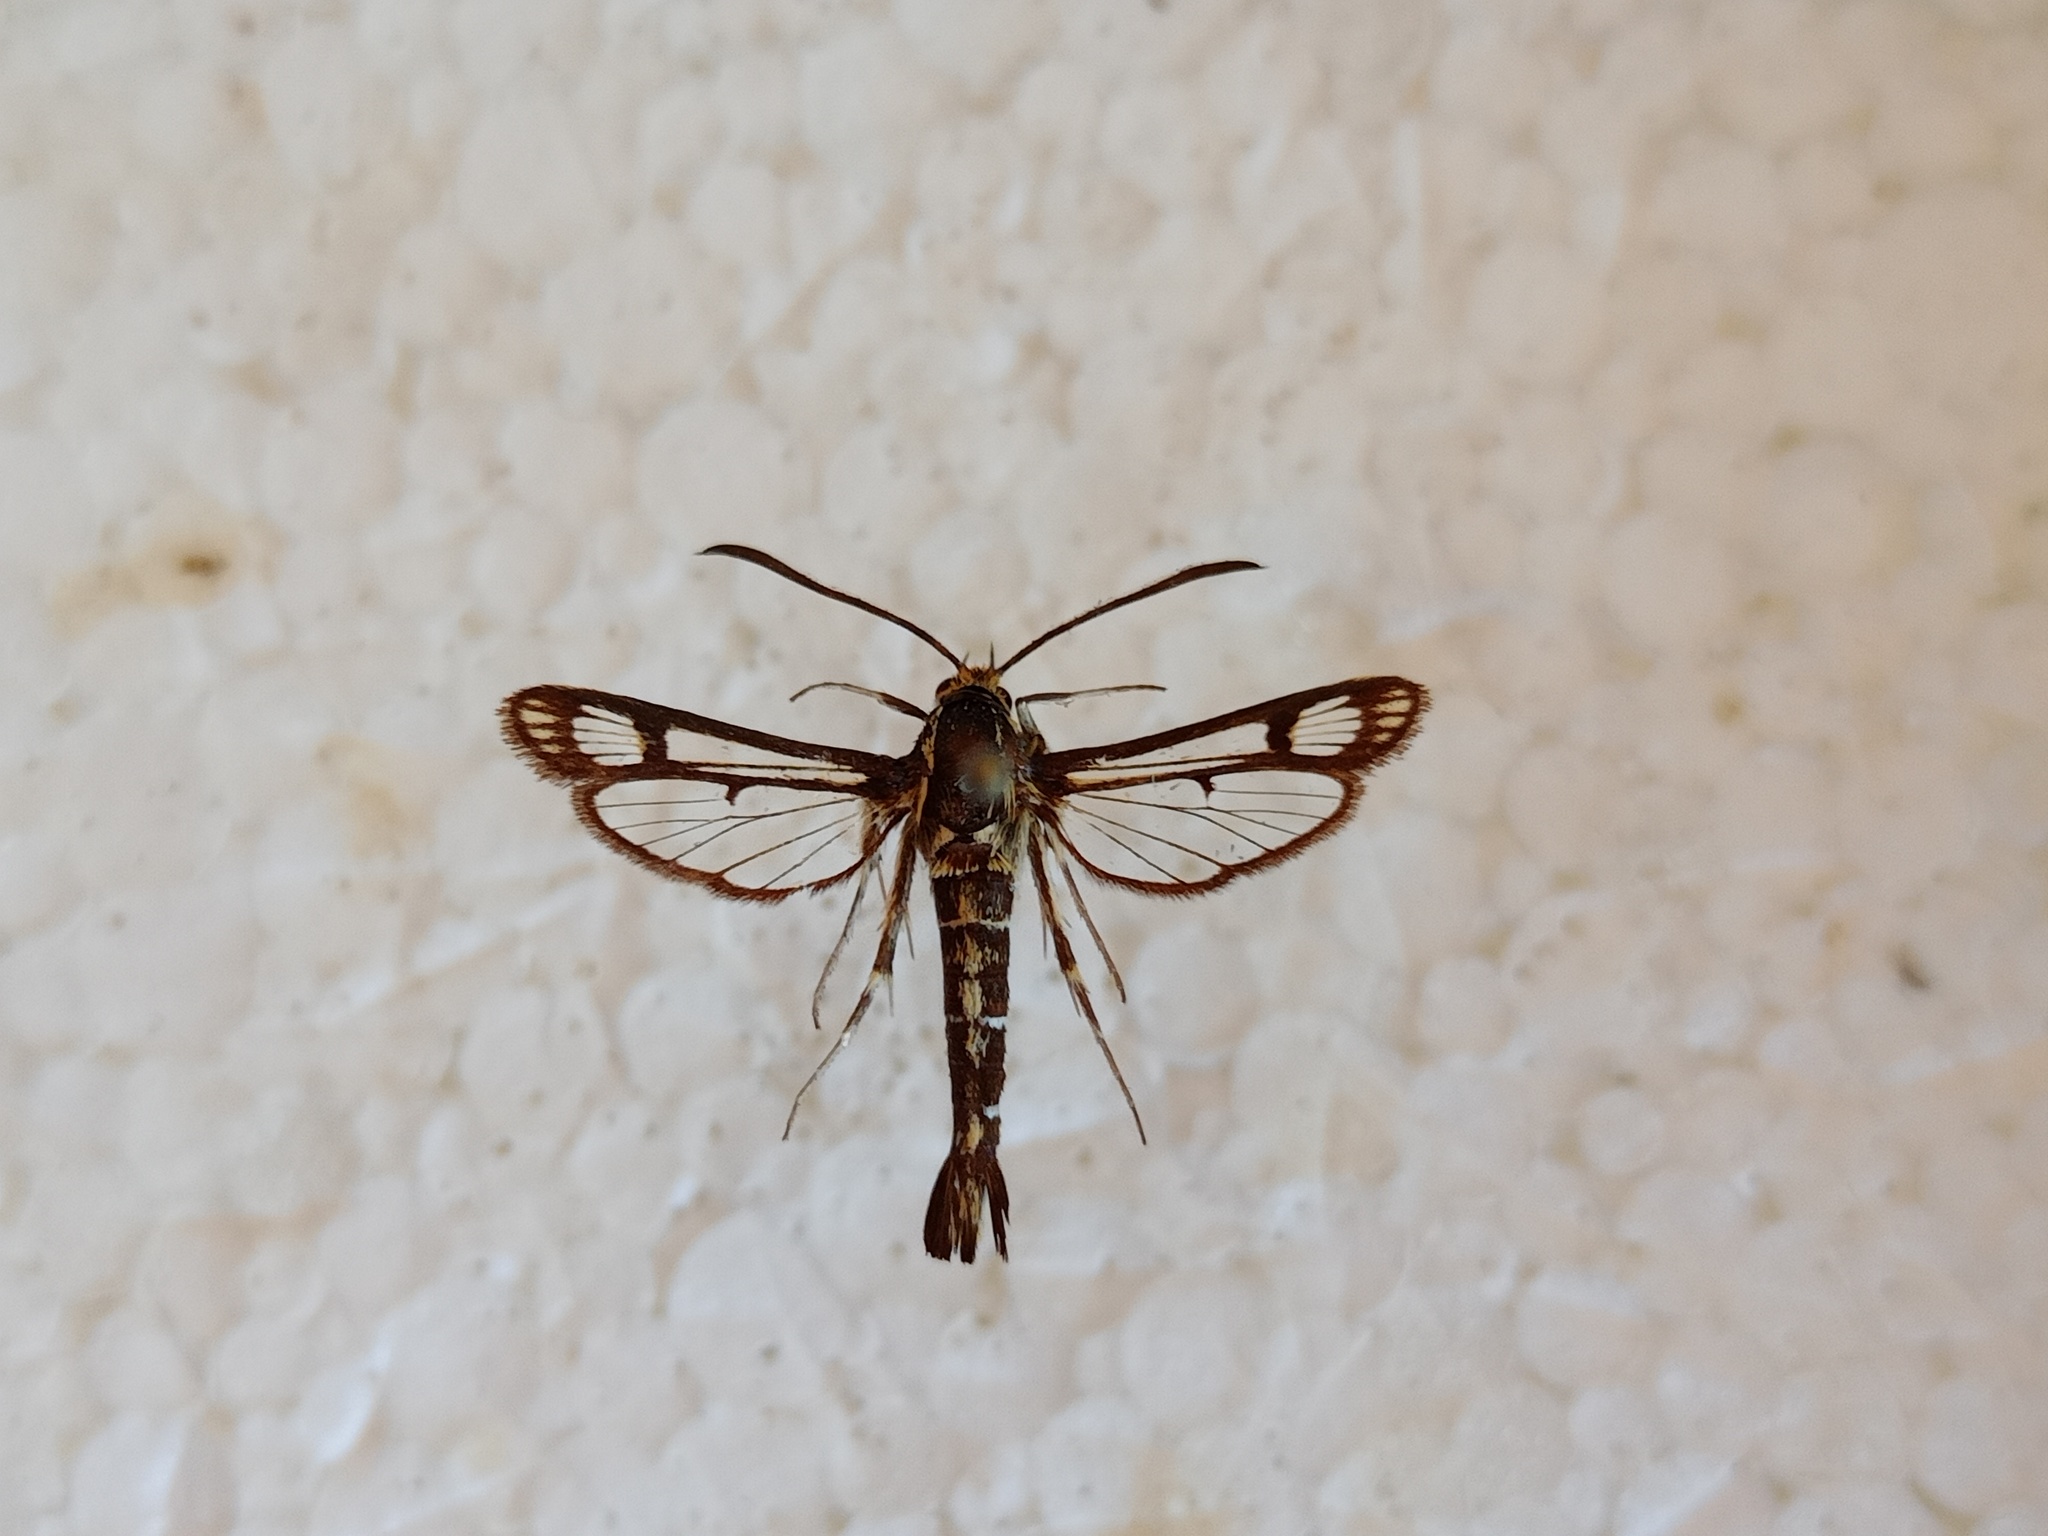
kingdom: Animalia
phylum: Arthropoda
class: Insecta
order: Lepidoptera
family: Sesiidae
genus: Pyropteron
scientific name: Pyropteron triannuliformis
